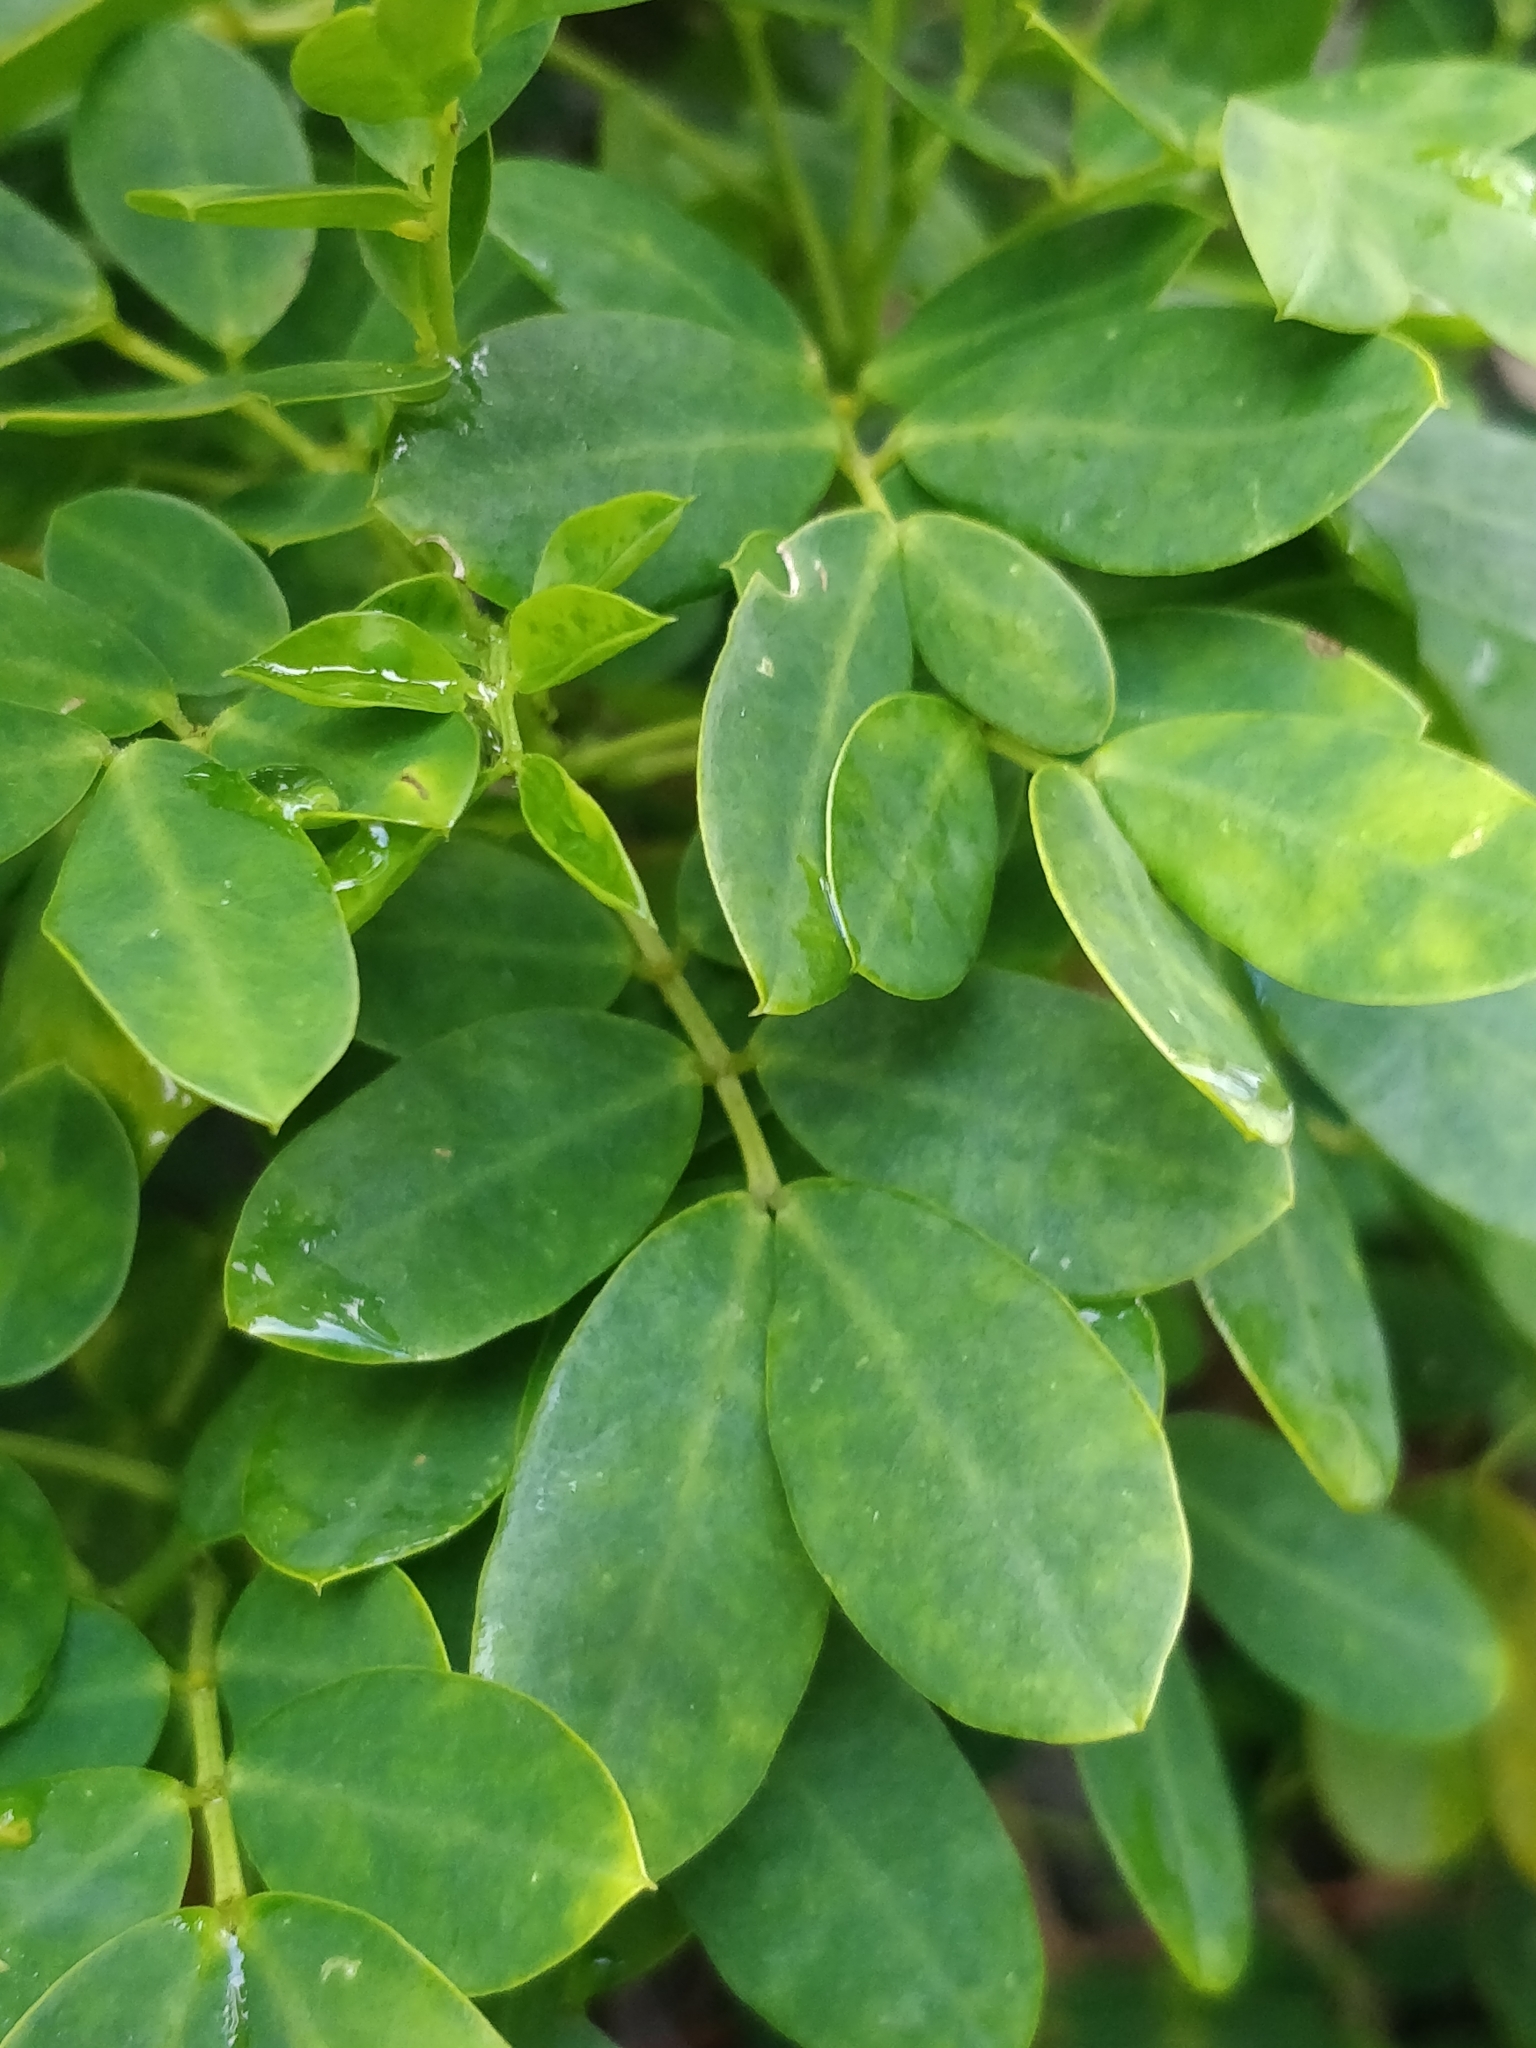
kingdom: Plantae
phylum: Tracheophyta
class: Magnoliopsida
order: Fabales
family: Fabaceae
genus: Senna
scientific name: Senna bicapsularis
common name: Christmasbush
